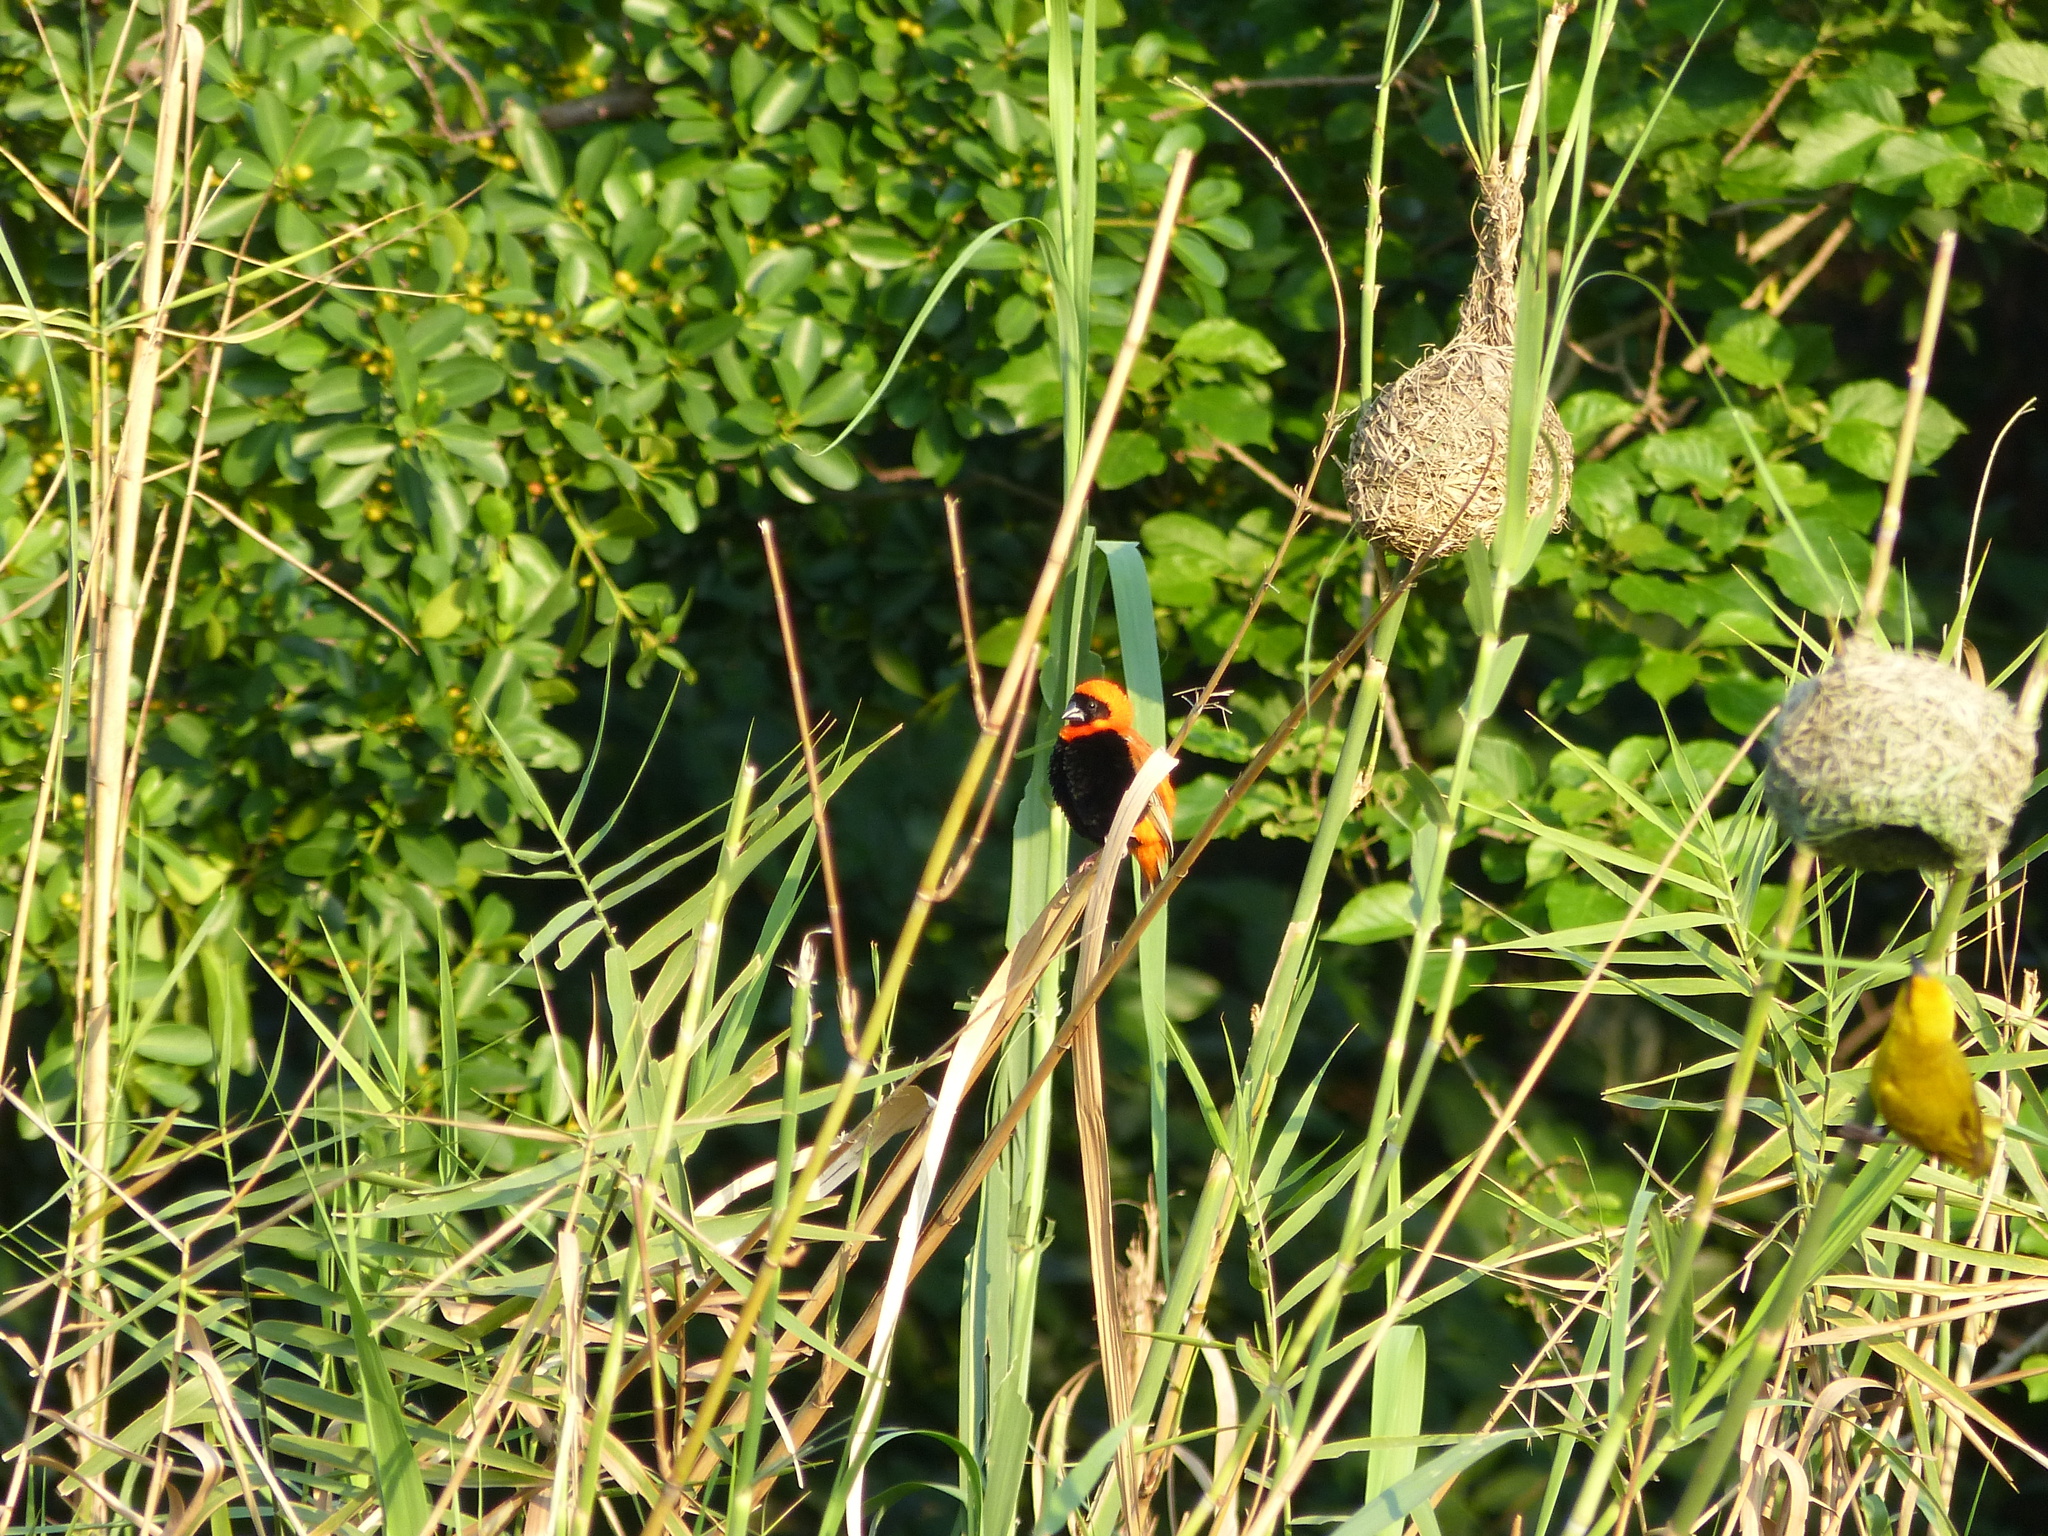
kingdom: Animalia
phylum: Chordata
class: Aves
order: Passeriformes
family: Ploceidae
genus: Euplectes
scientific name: Euplectes orix
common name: Southern red bishop
